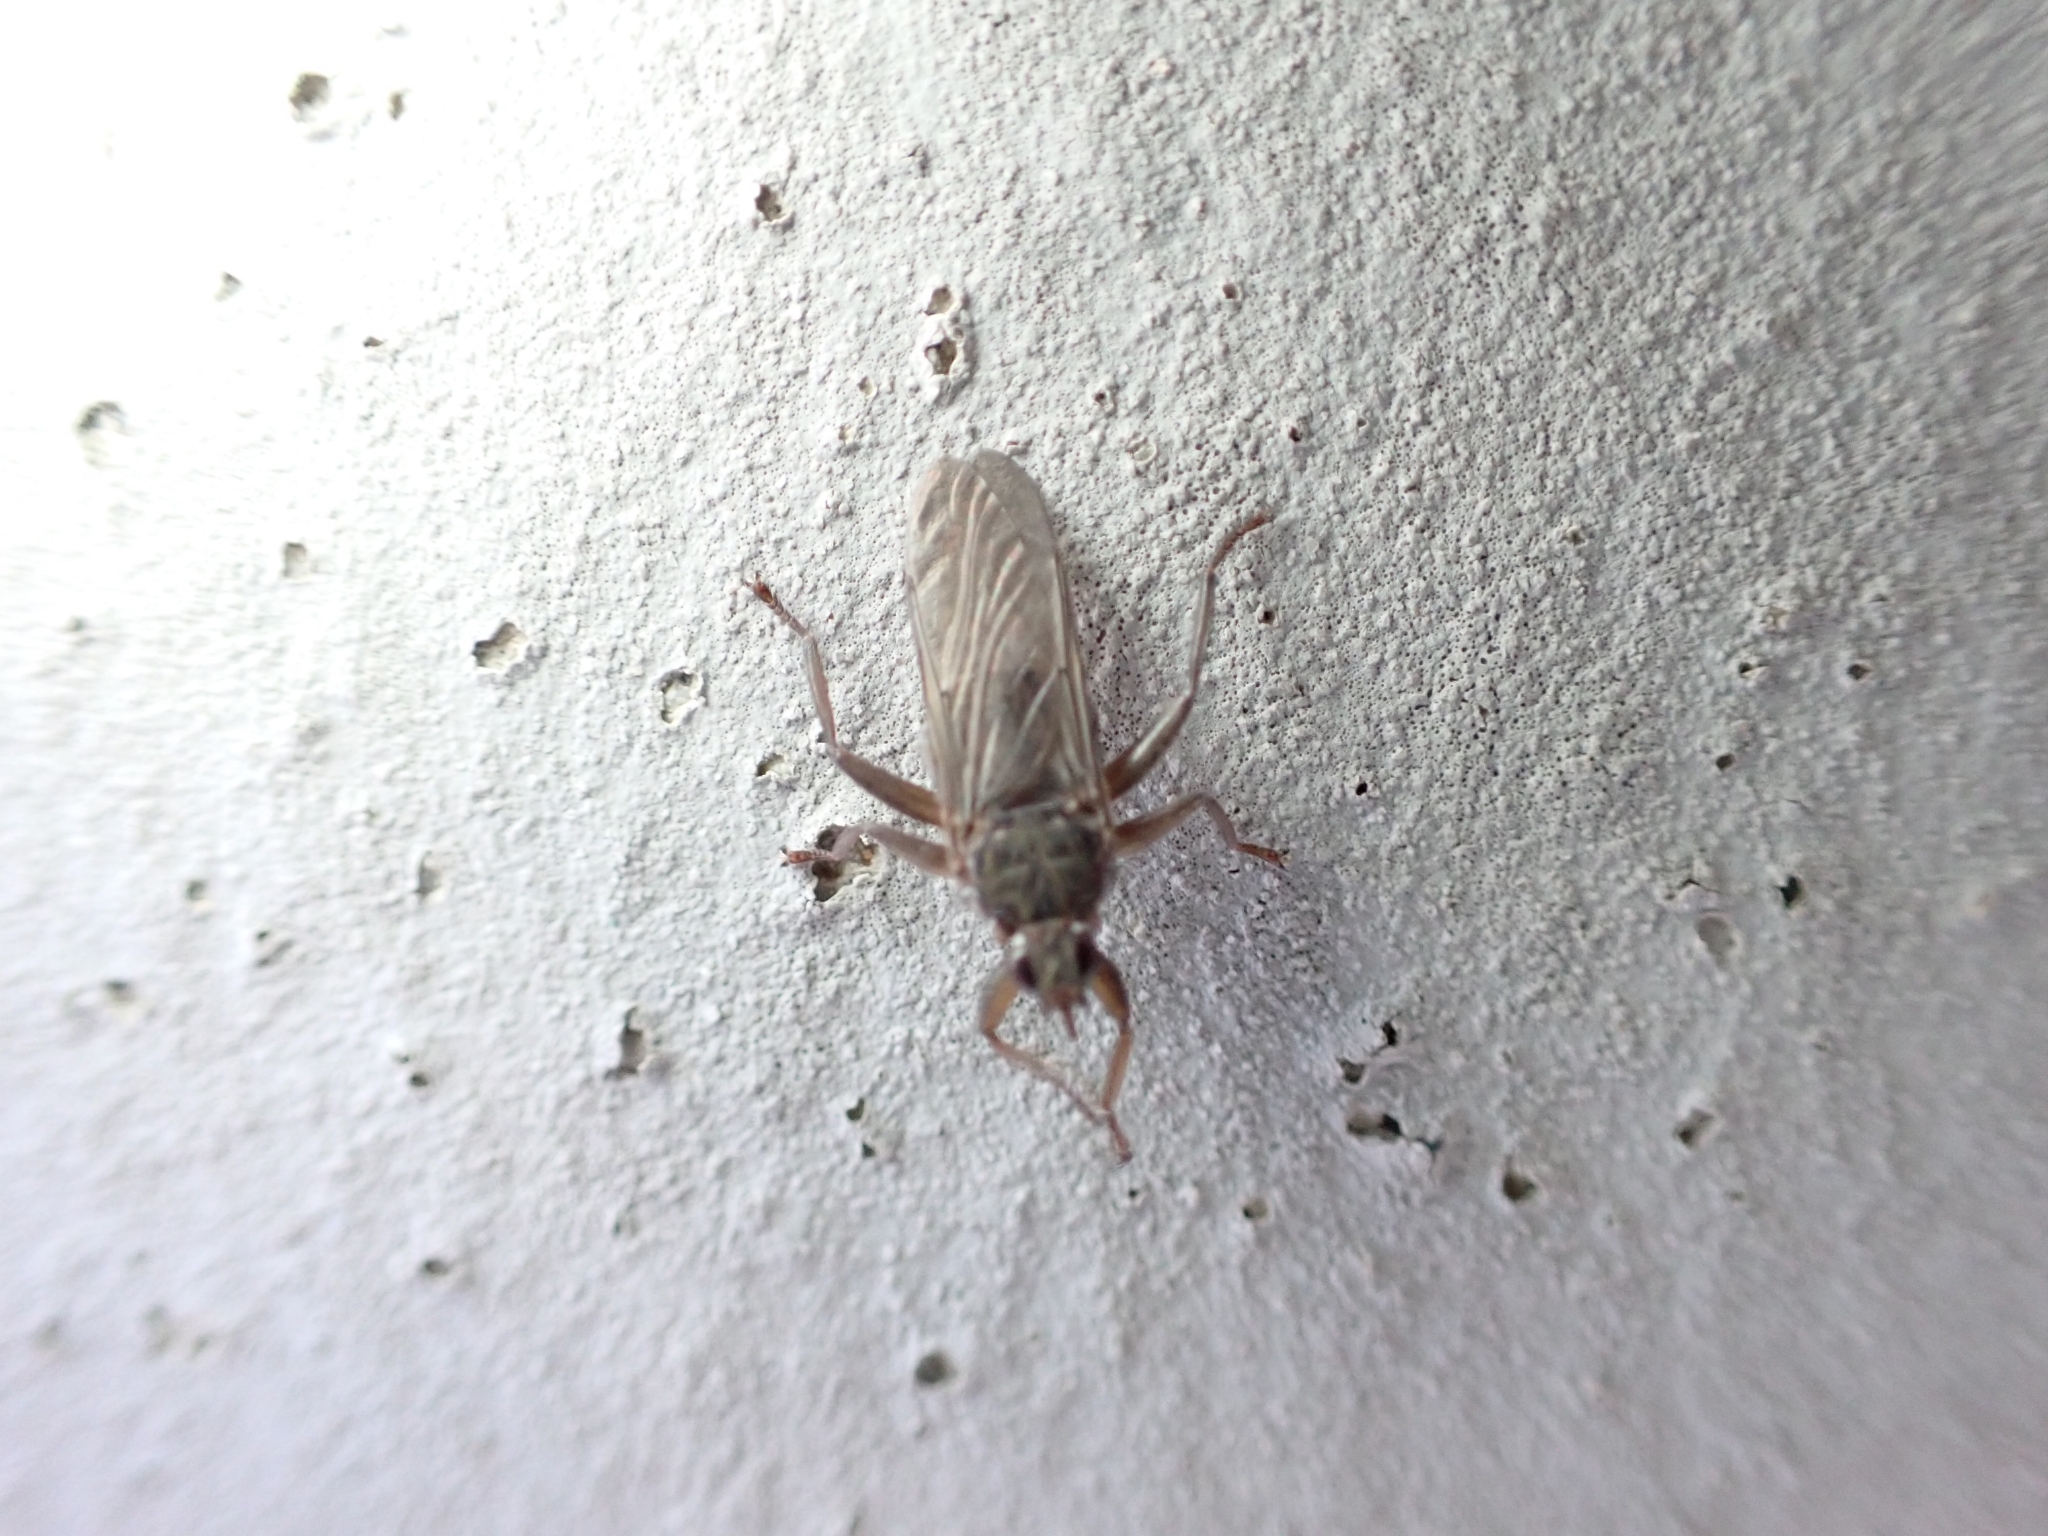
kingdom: Animalia
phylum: Arthropoda
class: Insecta
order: Diptera
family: Hippoboscidae
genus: Pseudolynchia
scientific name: Pseudolynchia canariensis
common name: Louse fly
